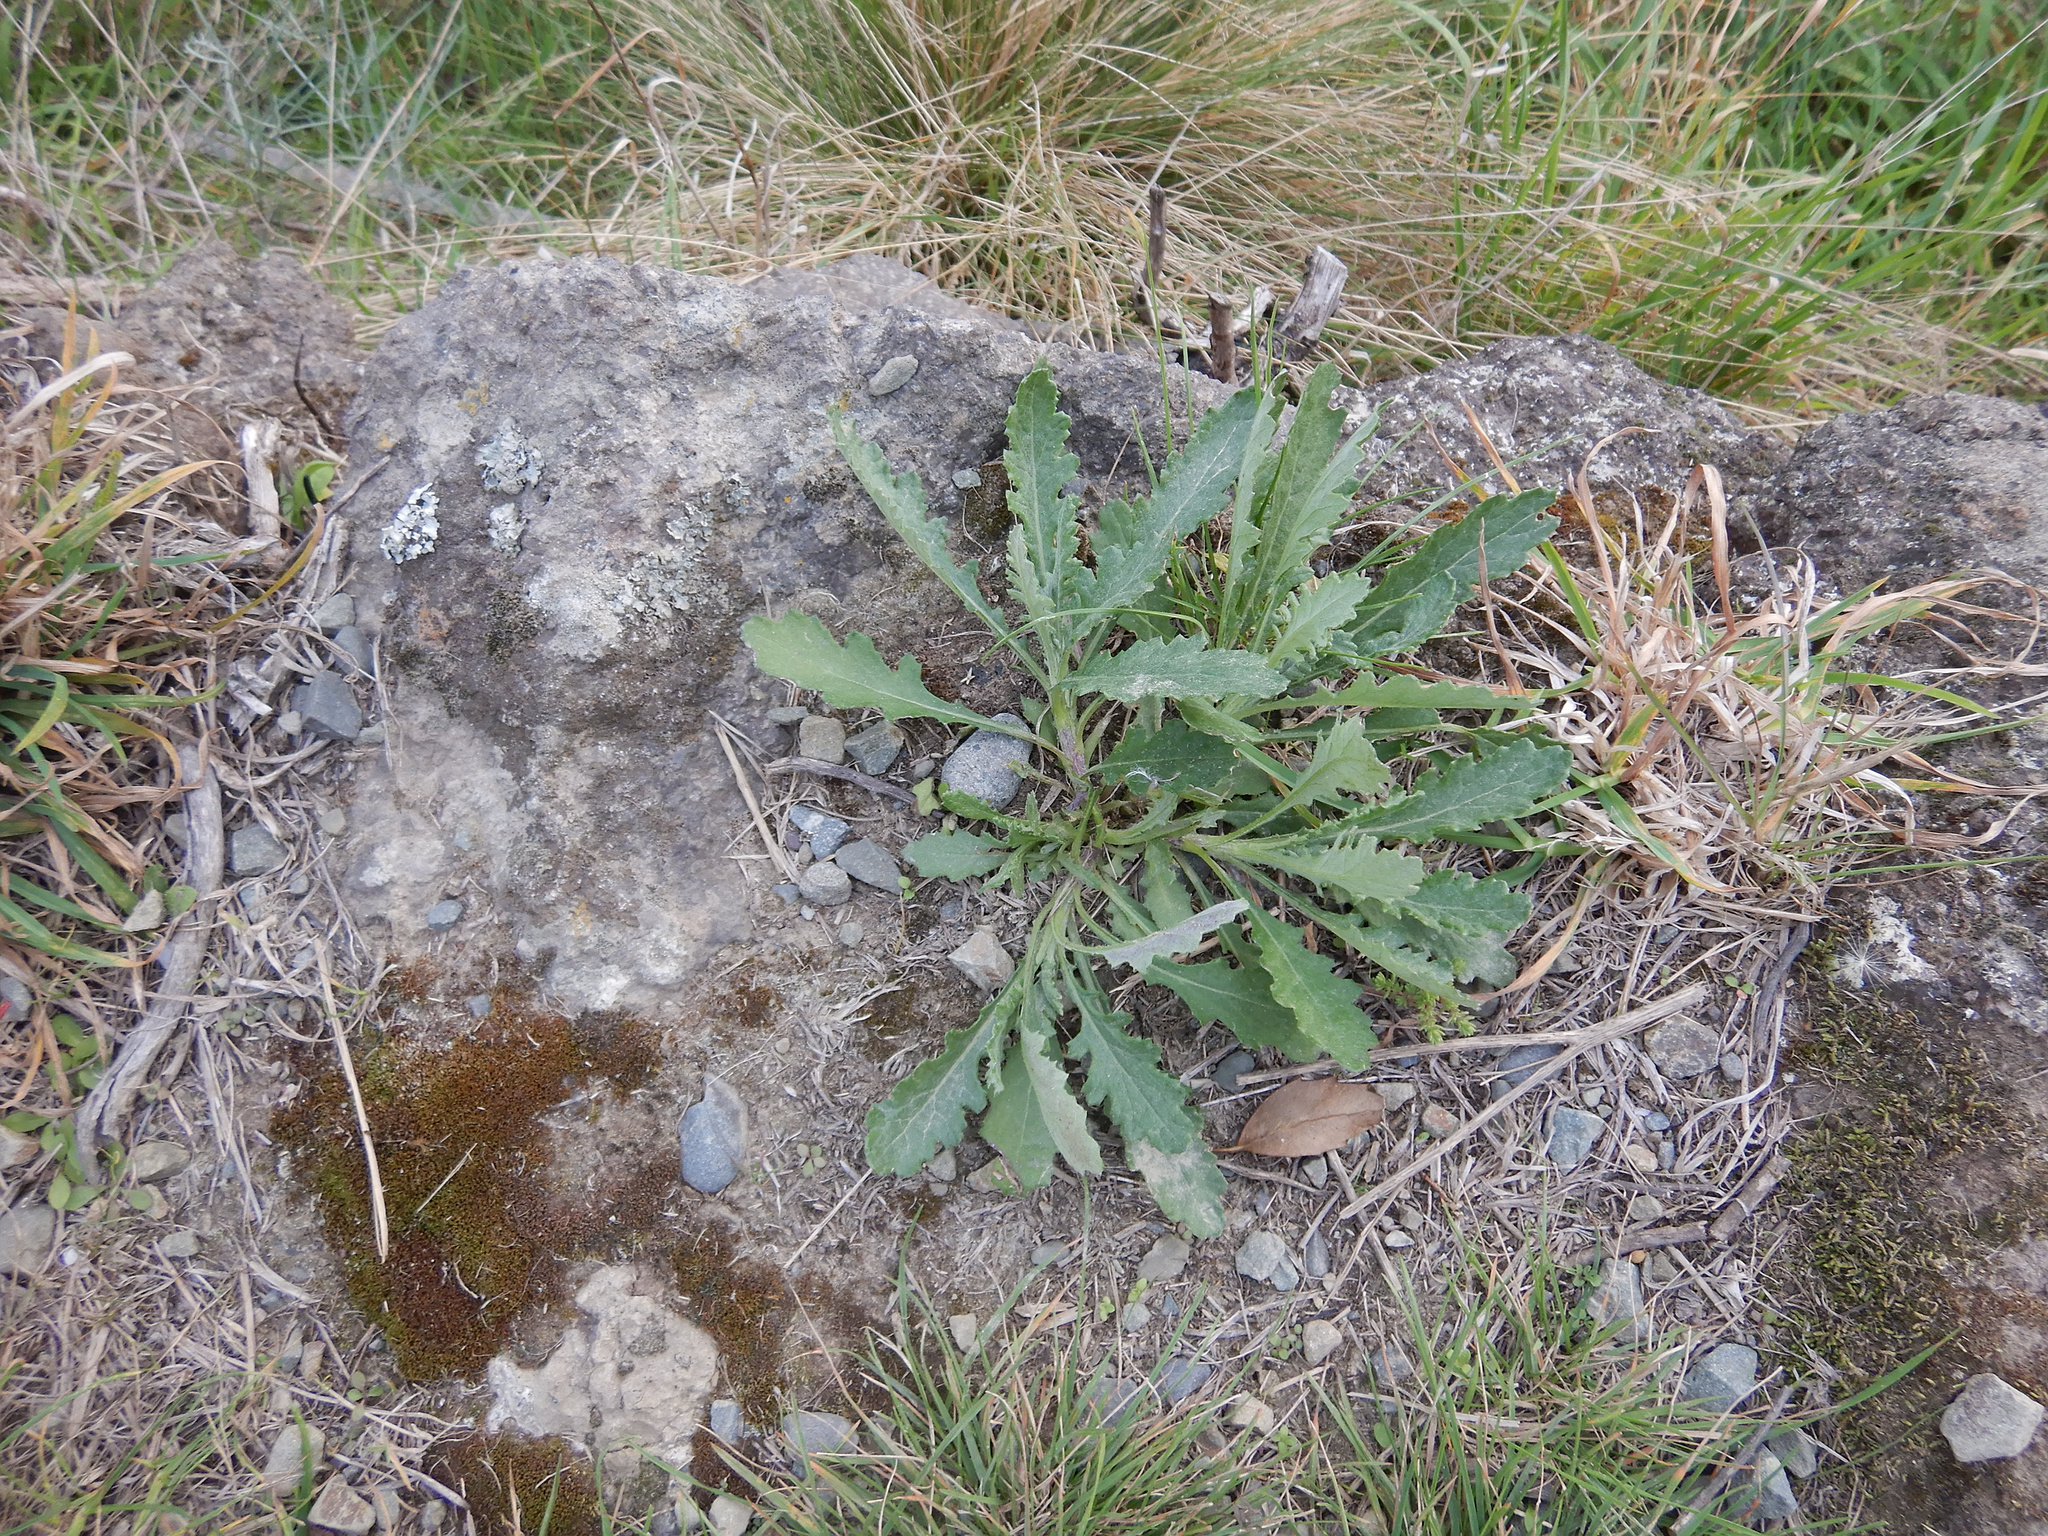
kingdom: Plantae
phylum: Tracheophyta
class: Magnoliopsida
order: Asterales
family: Asteraceae
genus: Senecio
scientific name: Senecio glomeratus
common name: Cutleaf burnweed
